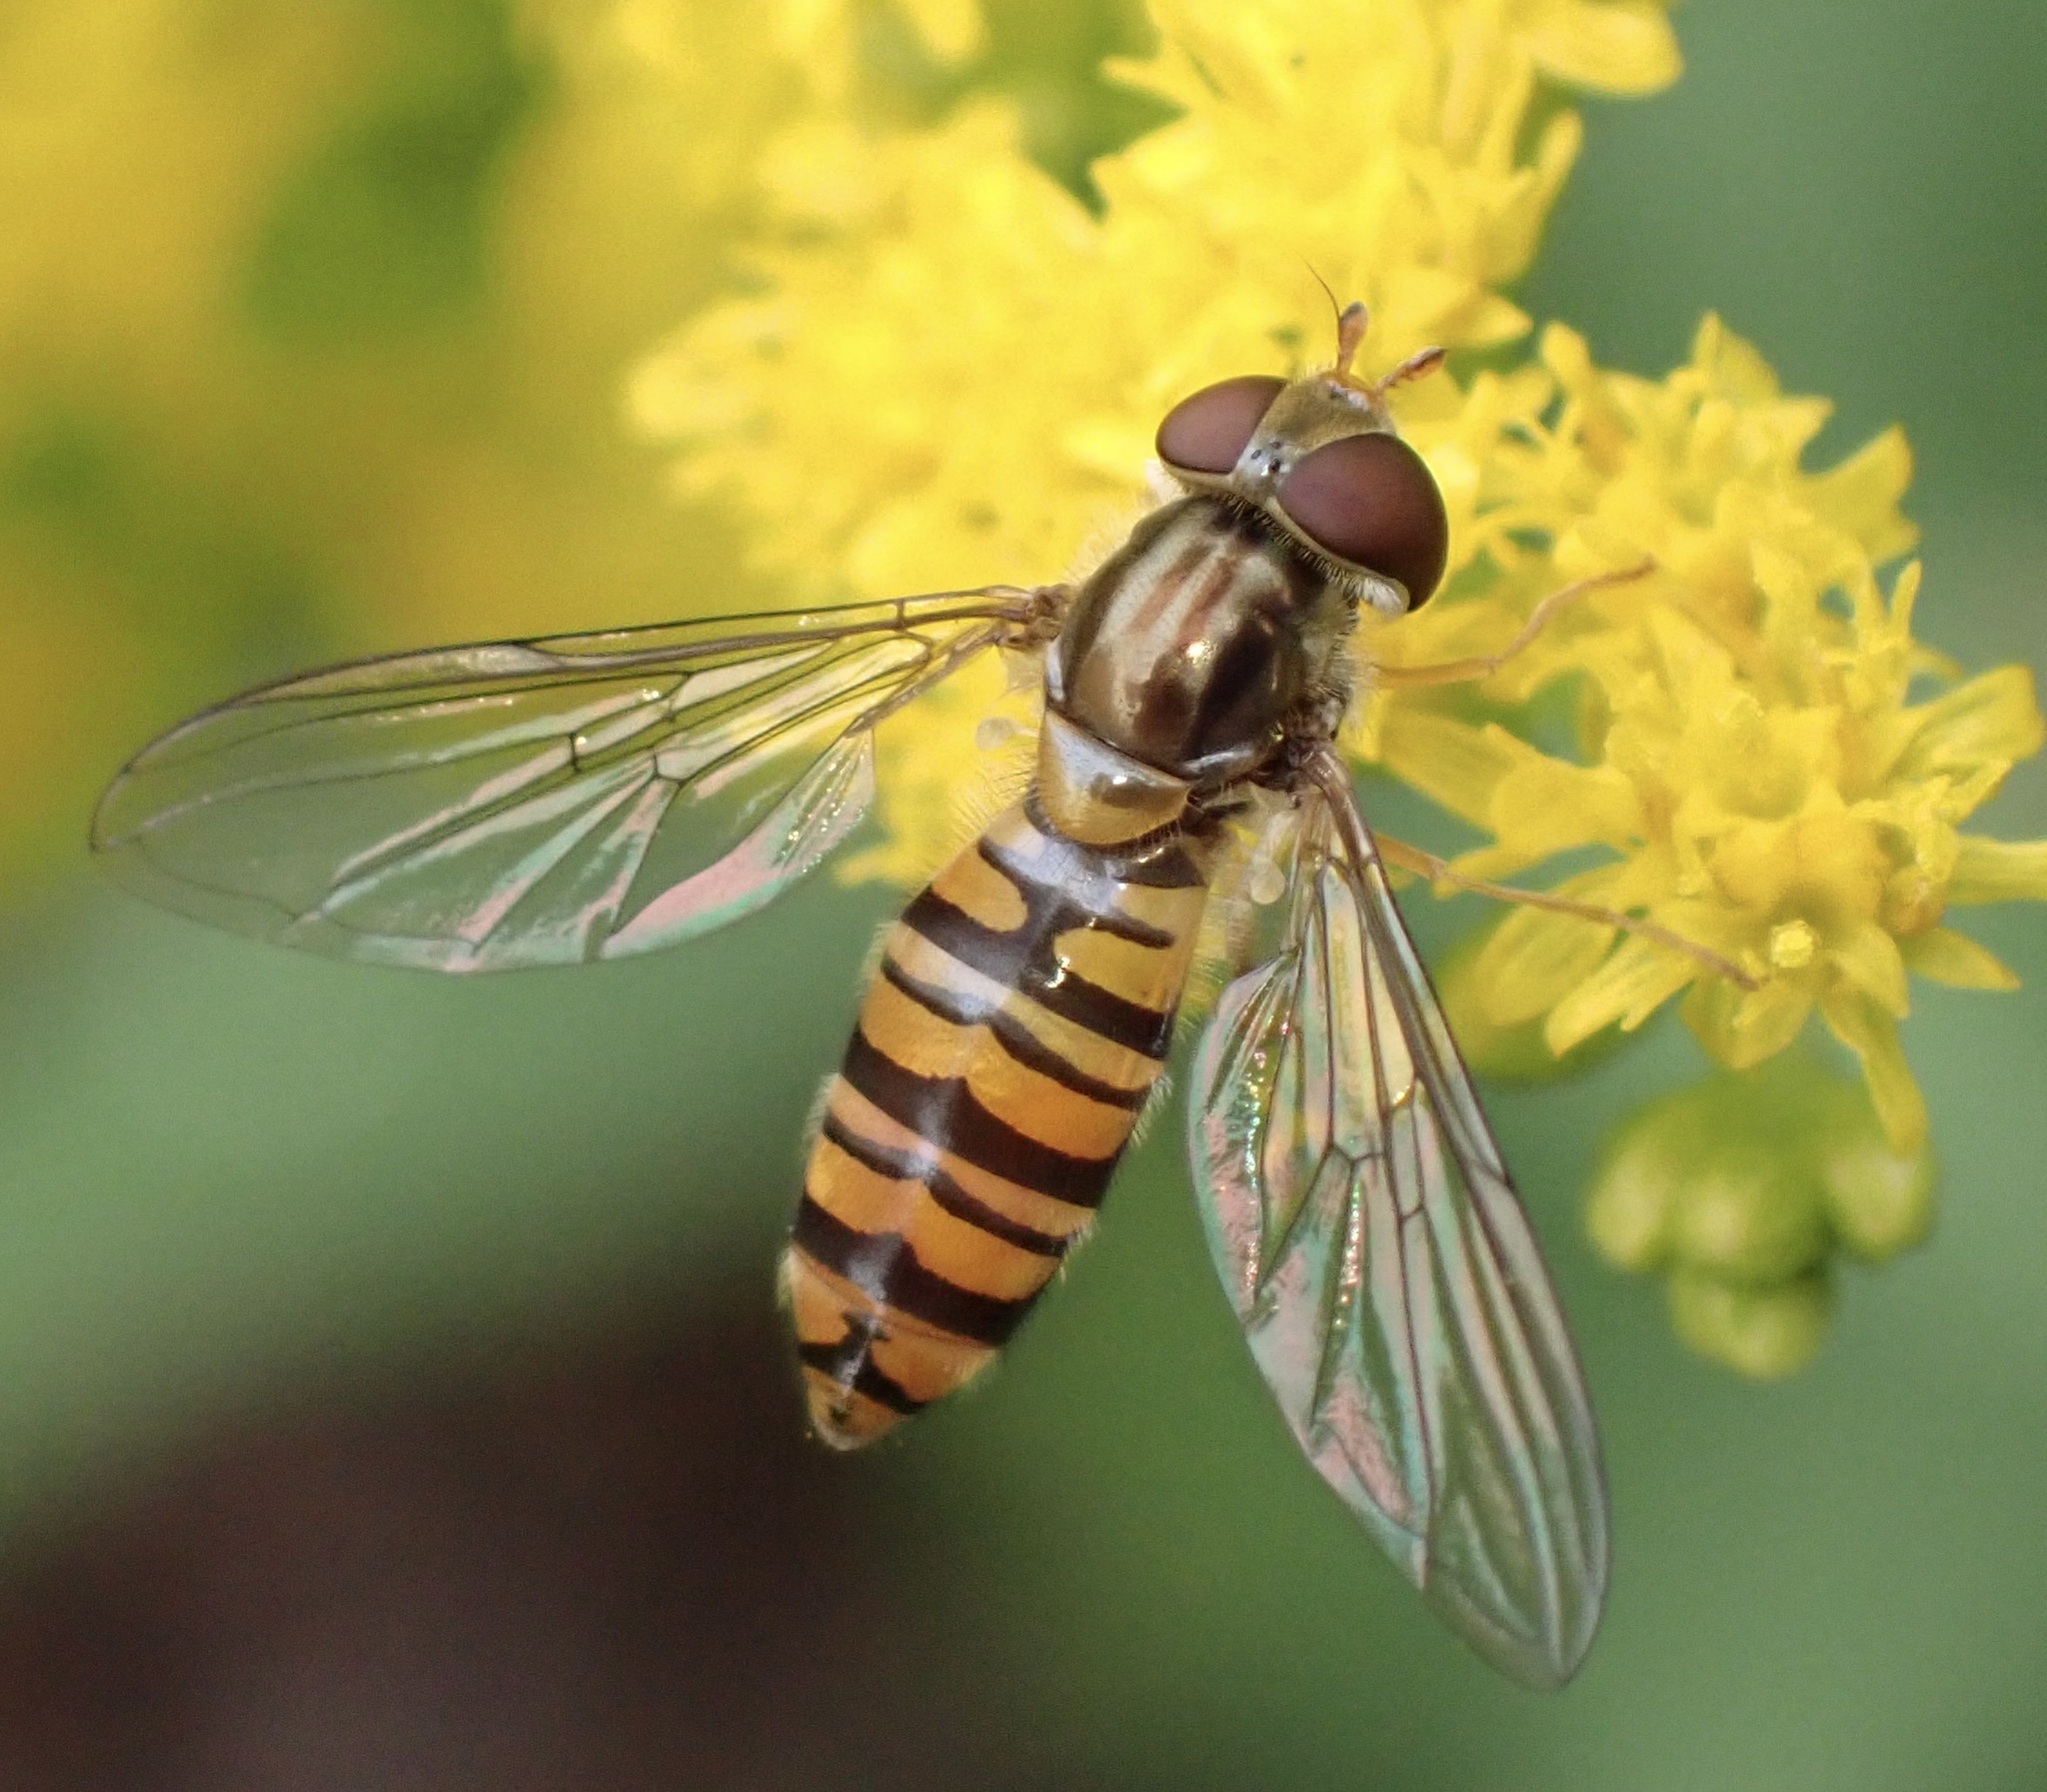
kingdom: Animalia
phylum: Arthropoda
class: Insecta
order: Diptera
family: Syrphidae
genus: Episyrphus
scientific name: Episyrphus balteatus
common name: Marmalade hoverfly
